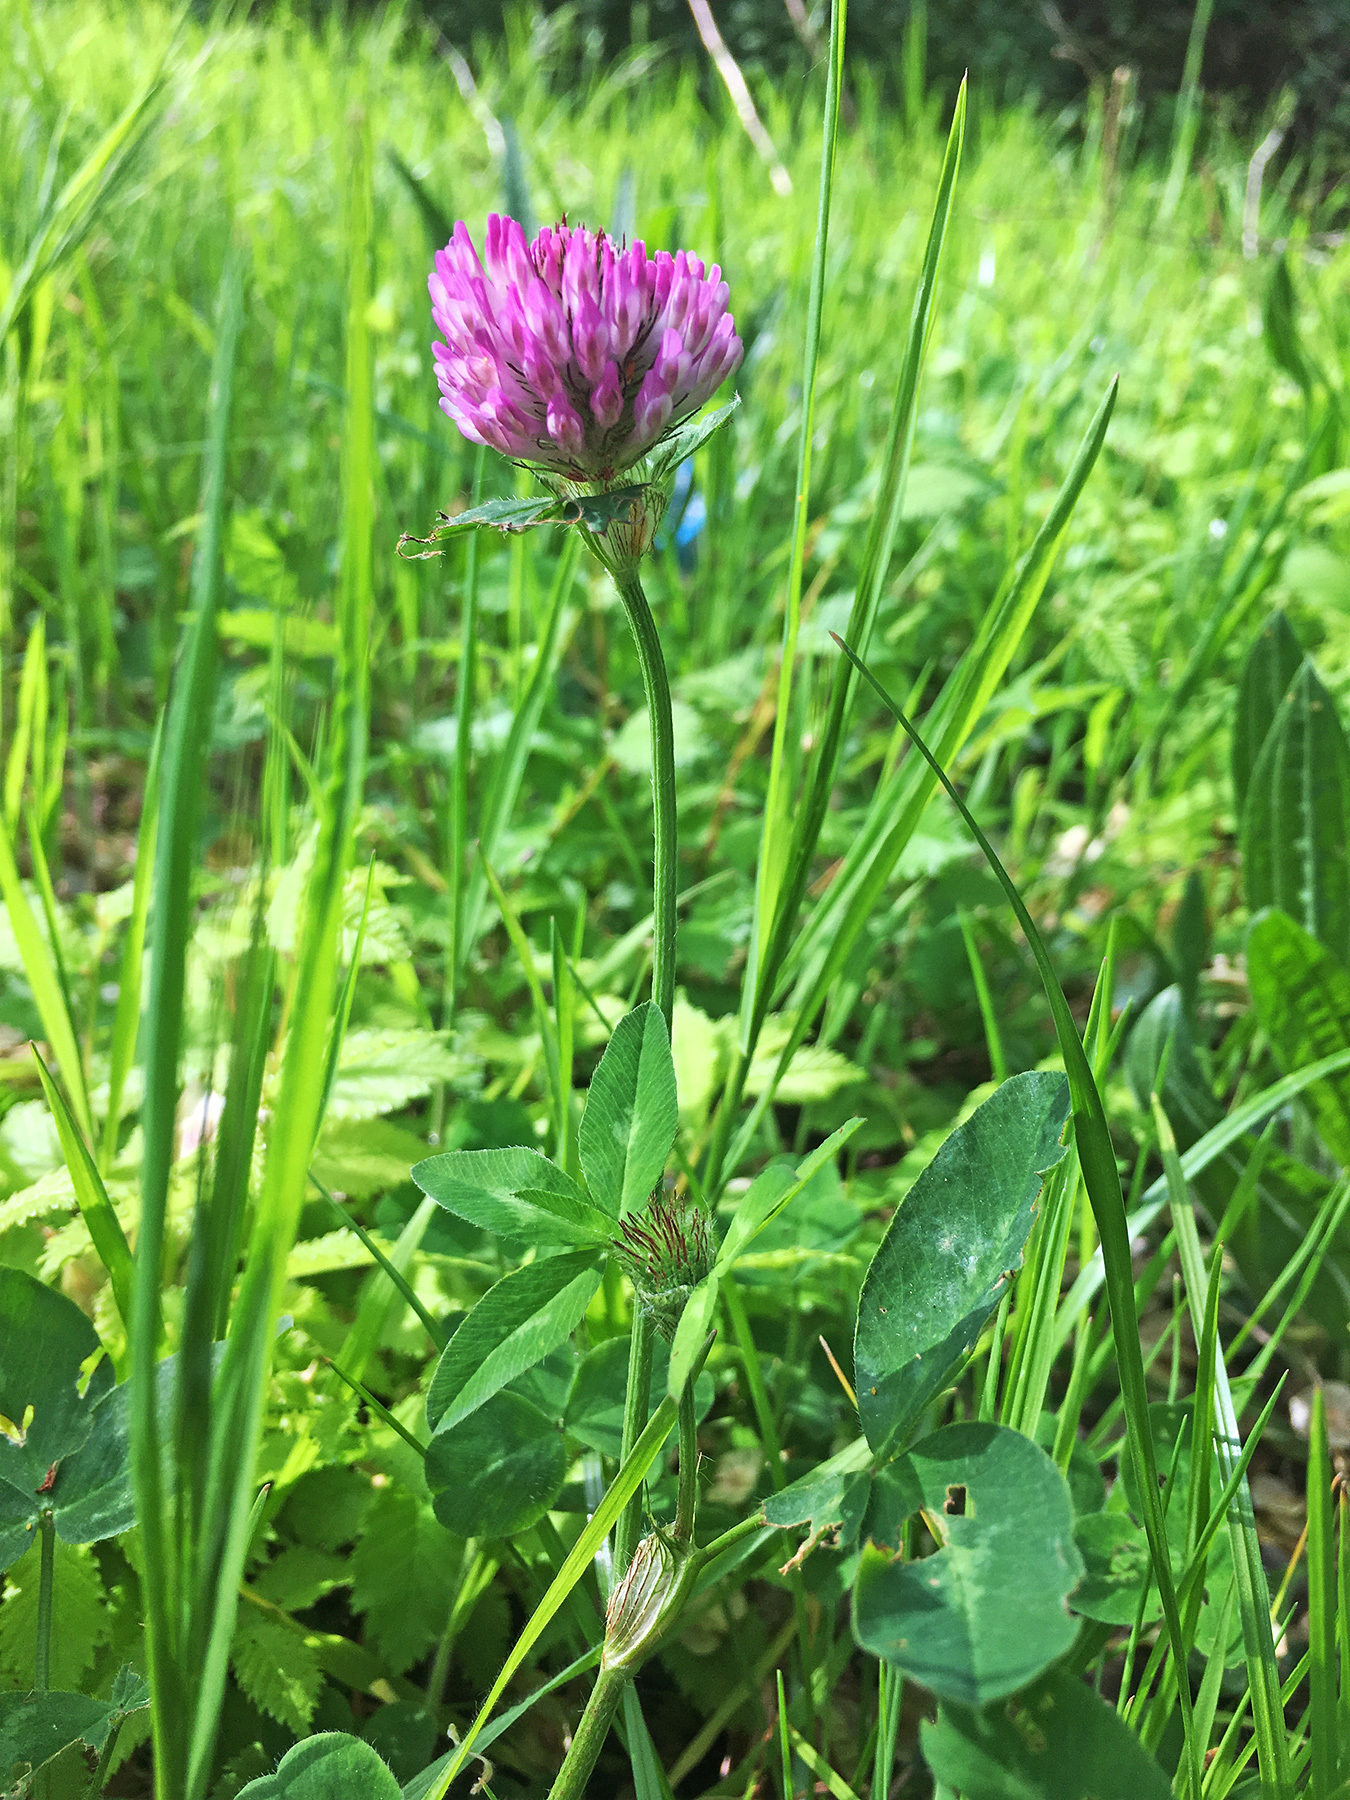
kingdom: Plantae
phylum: Tracheophyta
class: Magnoliopsida
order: Fabales
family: Fabaceae
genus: Trifolium
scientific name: Trifolium pratense
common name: Red clover
